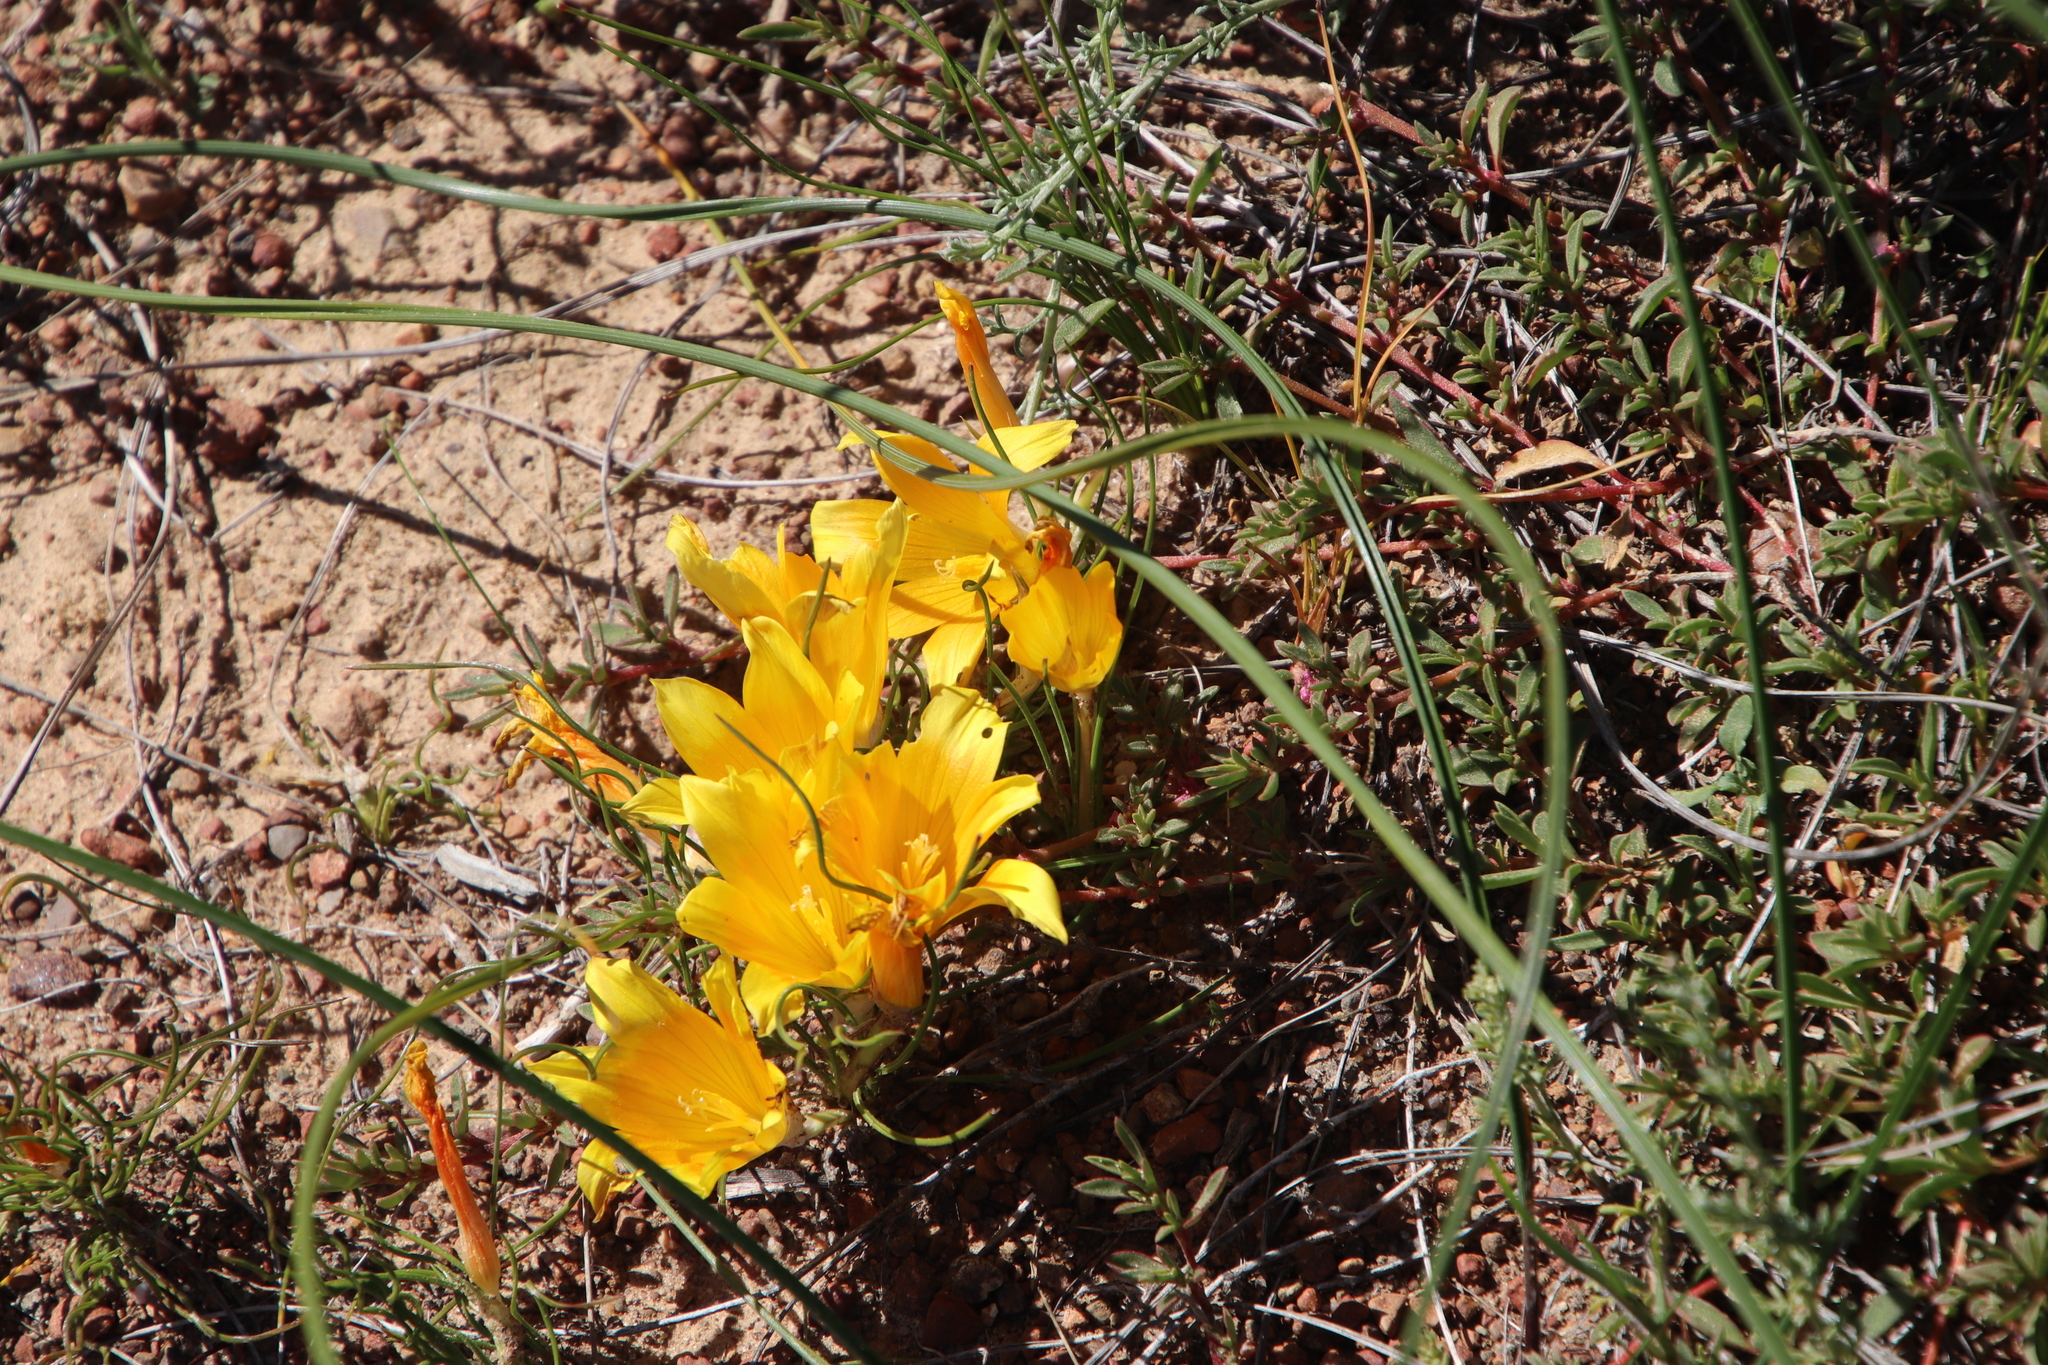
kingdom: Plantae
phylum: Tracheophyta
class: Liliopsida
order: Asparagales
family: Iridaceae
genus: Romulea
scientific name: Romulea tortuosa
